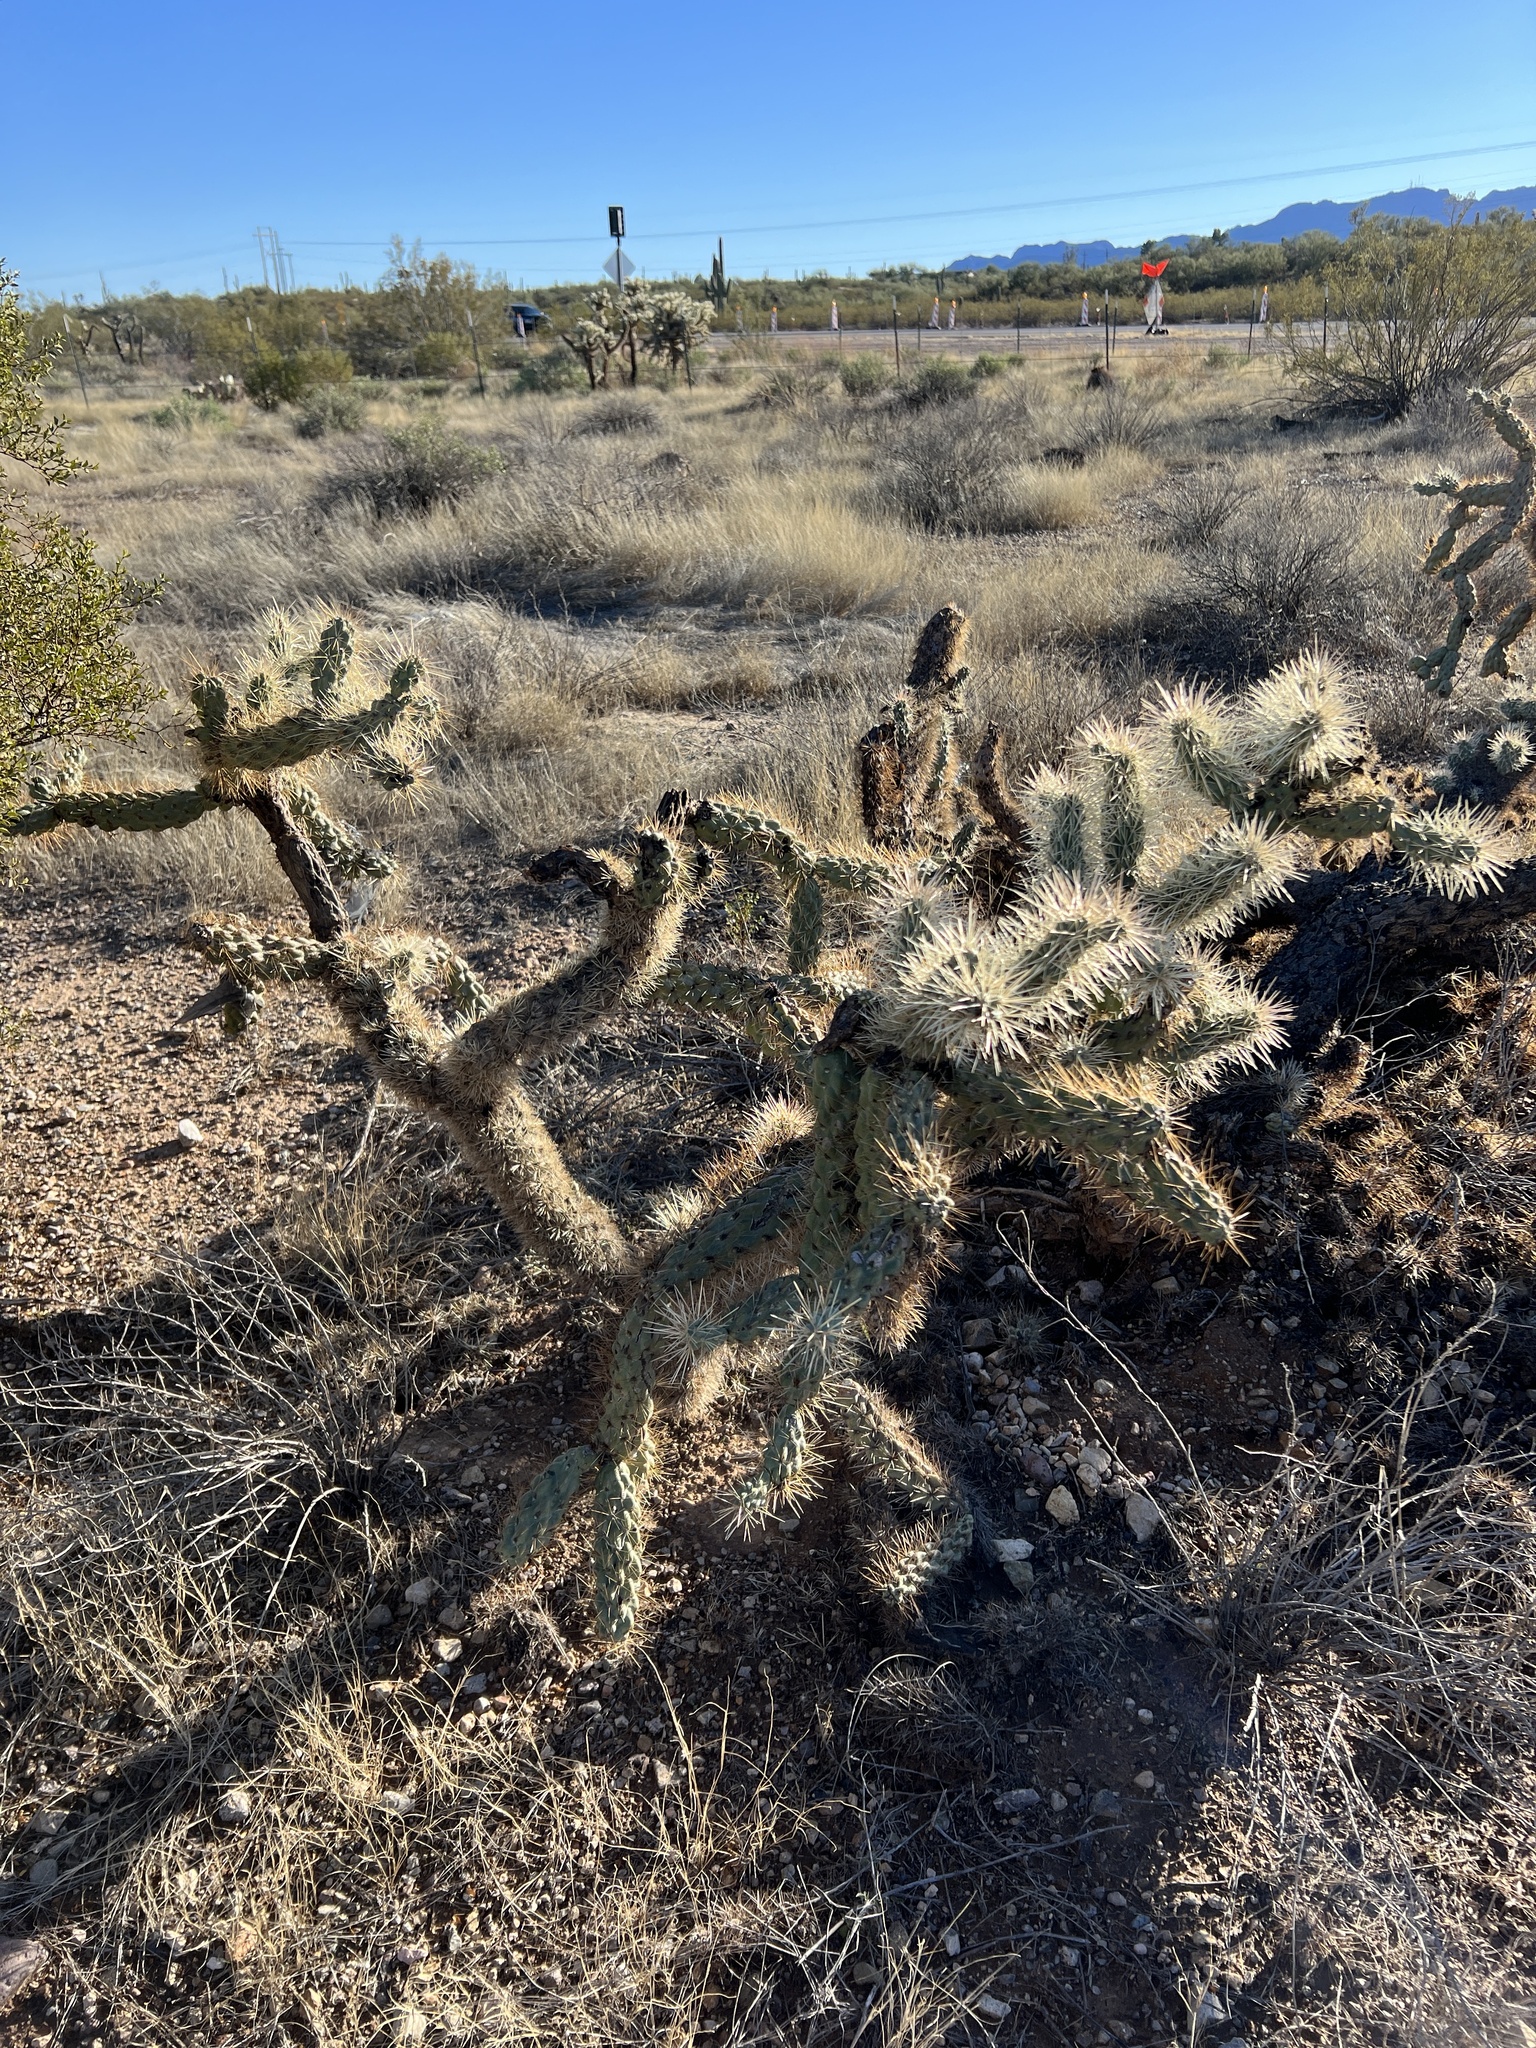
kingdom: Plantae
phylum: Tracheophyta
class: Magnoliopsida
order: Caryophyllales
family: Cactaceae
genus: Cylindropuntia
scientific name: Cylindropuntia fulgida
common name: Jumping cholla
